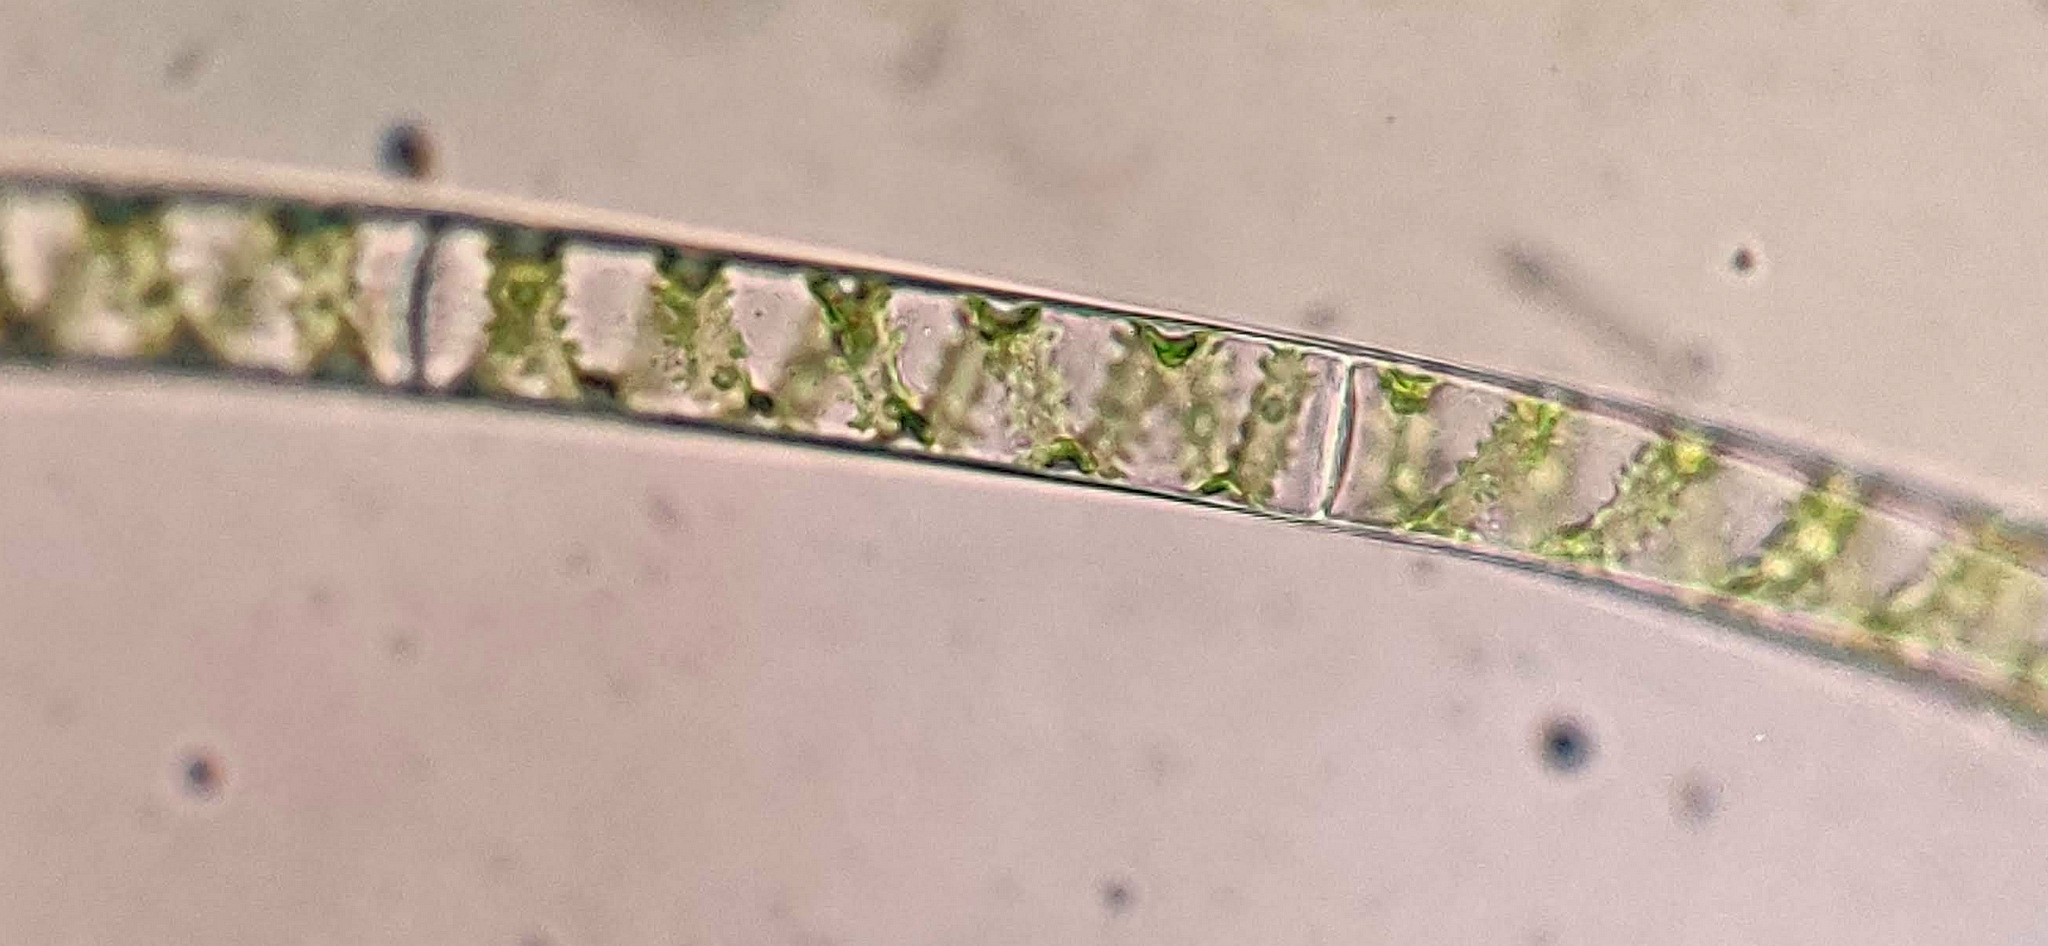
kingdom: Plantae
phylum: Charophyta
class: Zygnematophyceae
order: Zygnematales
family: Zygnemataceae
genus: Spirogyra
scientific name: Spirogyra
